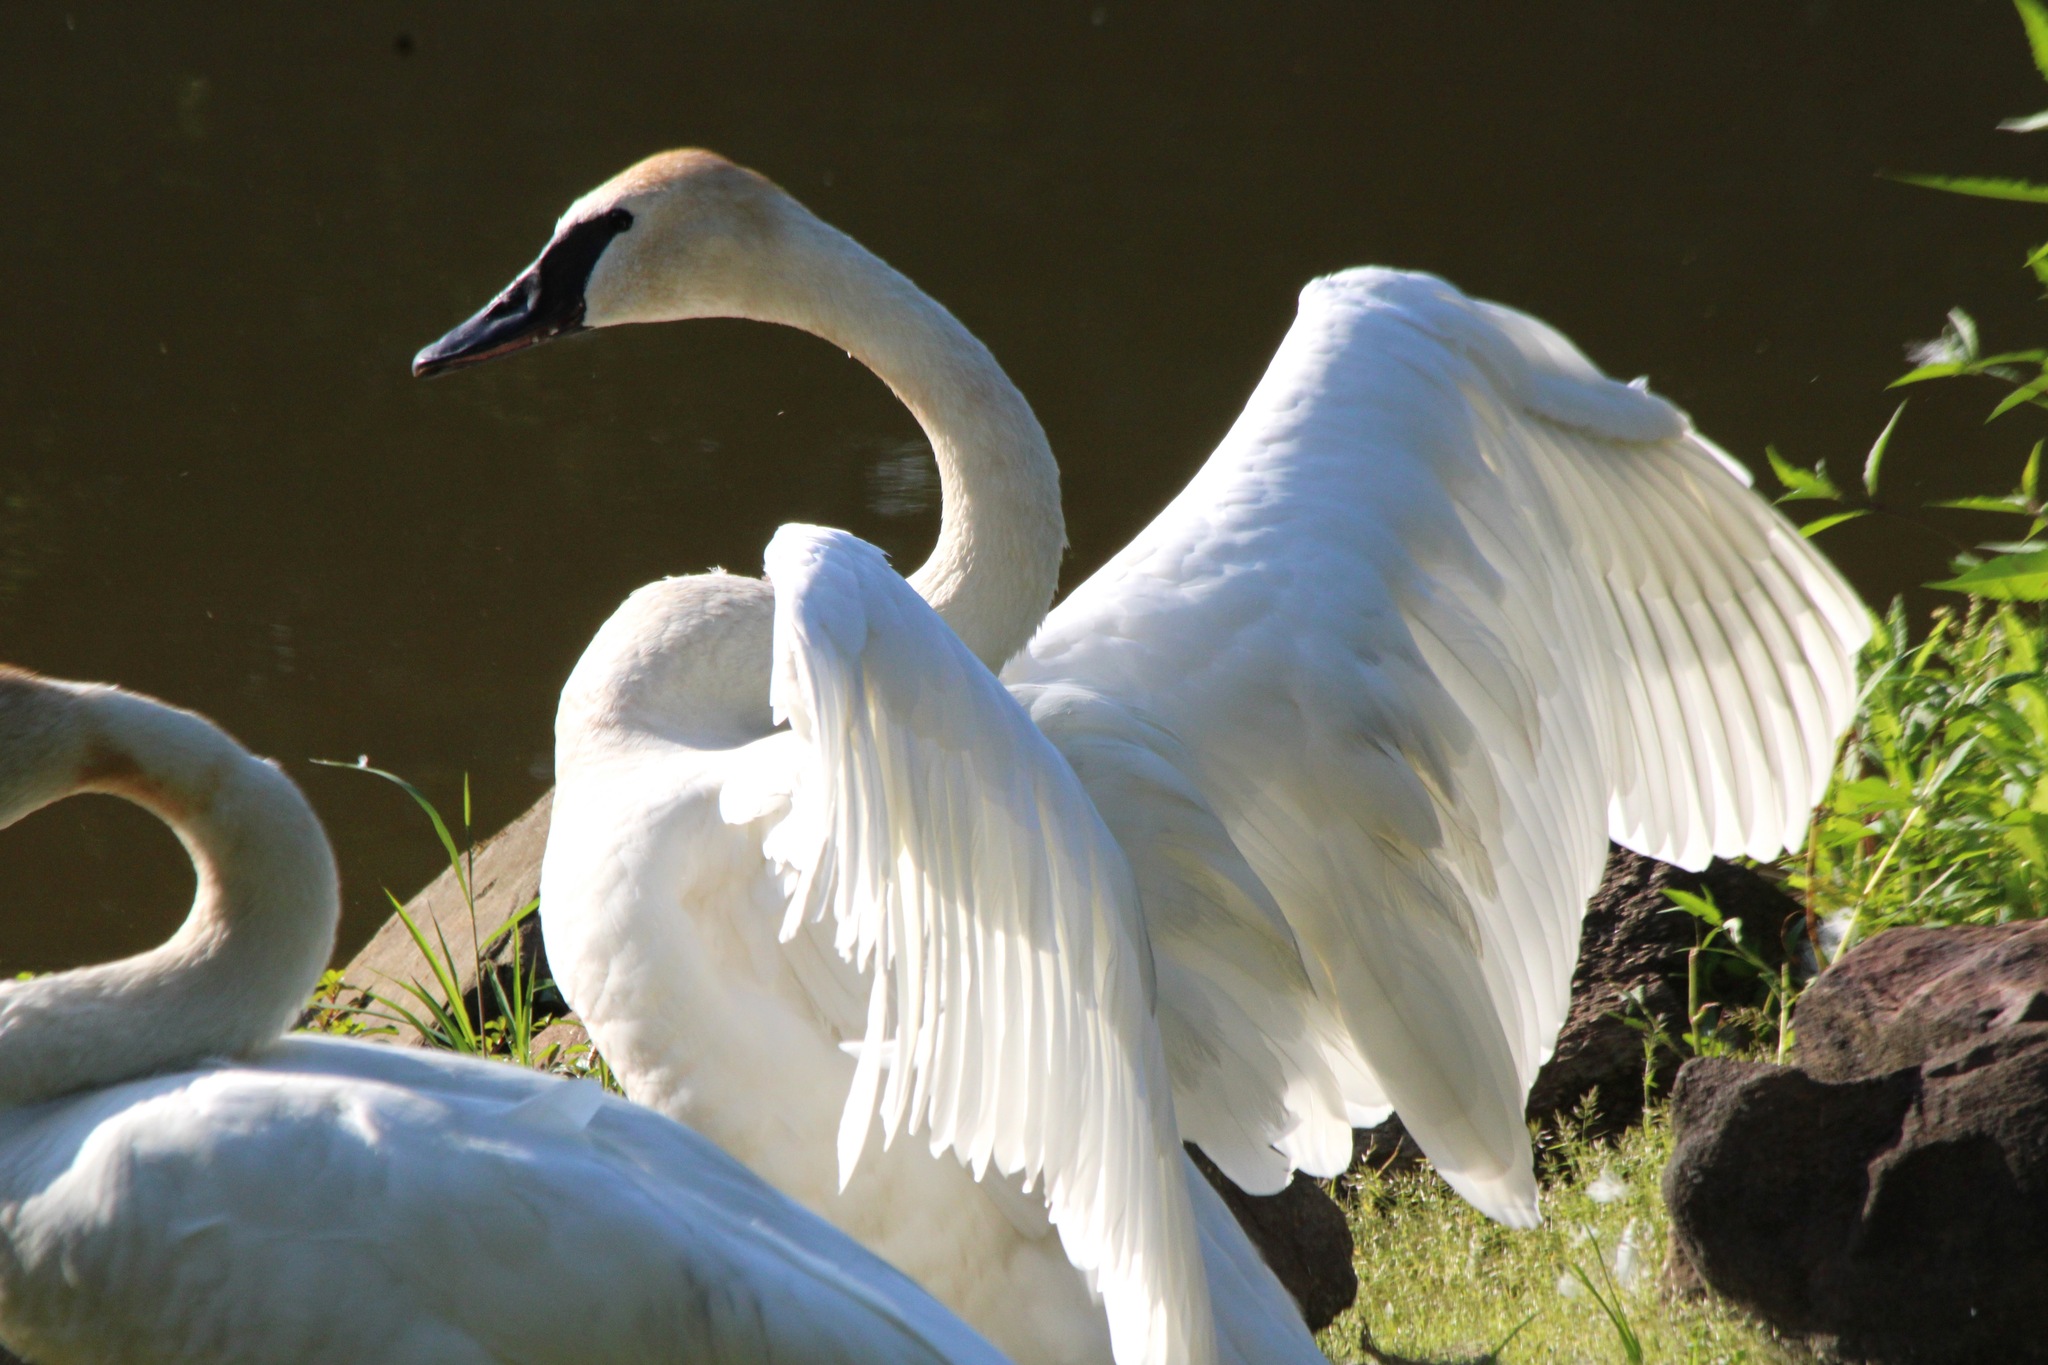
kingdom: Animalia
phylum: Chordata
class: Aves
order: Anseriformes
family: Anatidae
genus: Cygnus
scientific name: Cygnus buccinator
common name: Trumpeter swan
